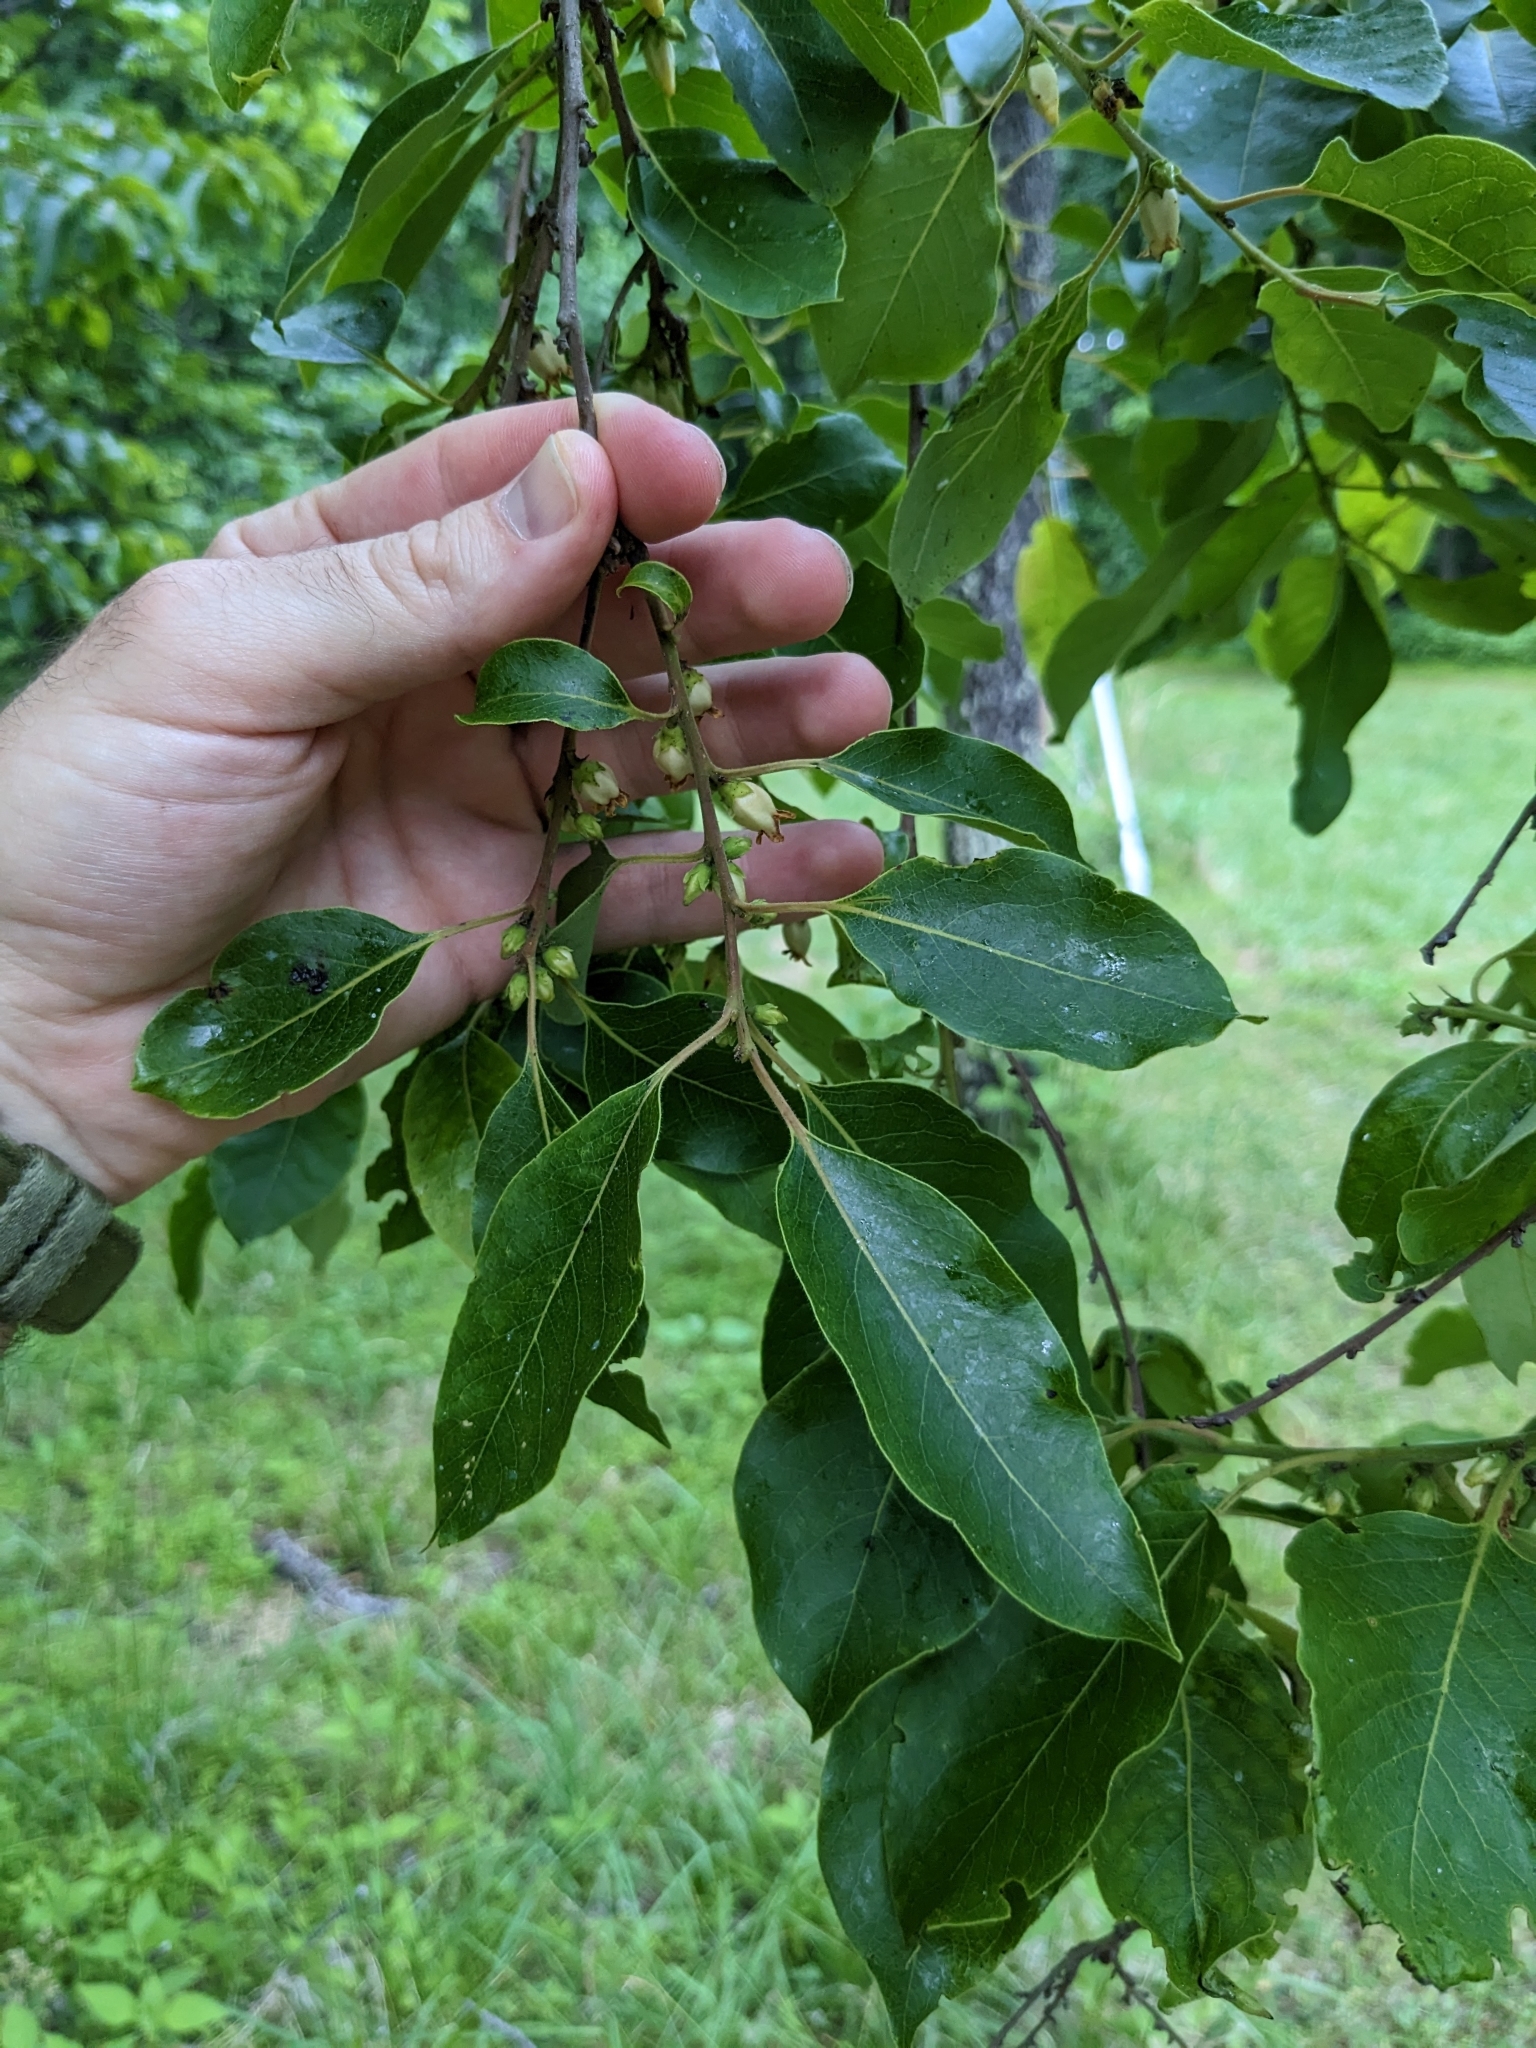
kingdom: Plantae
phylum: Tracheophyta
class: Magnoliopsida
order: Ericales
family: Ebenaceae
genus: Diospyros
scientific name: Diospyros virginiana
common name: Persimmon
